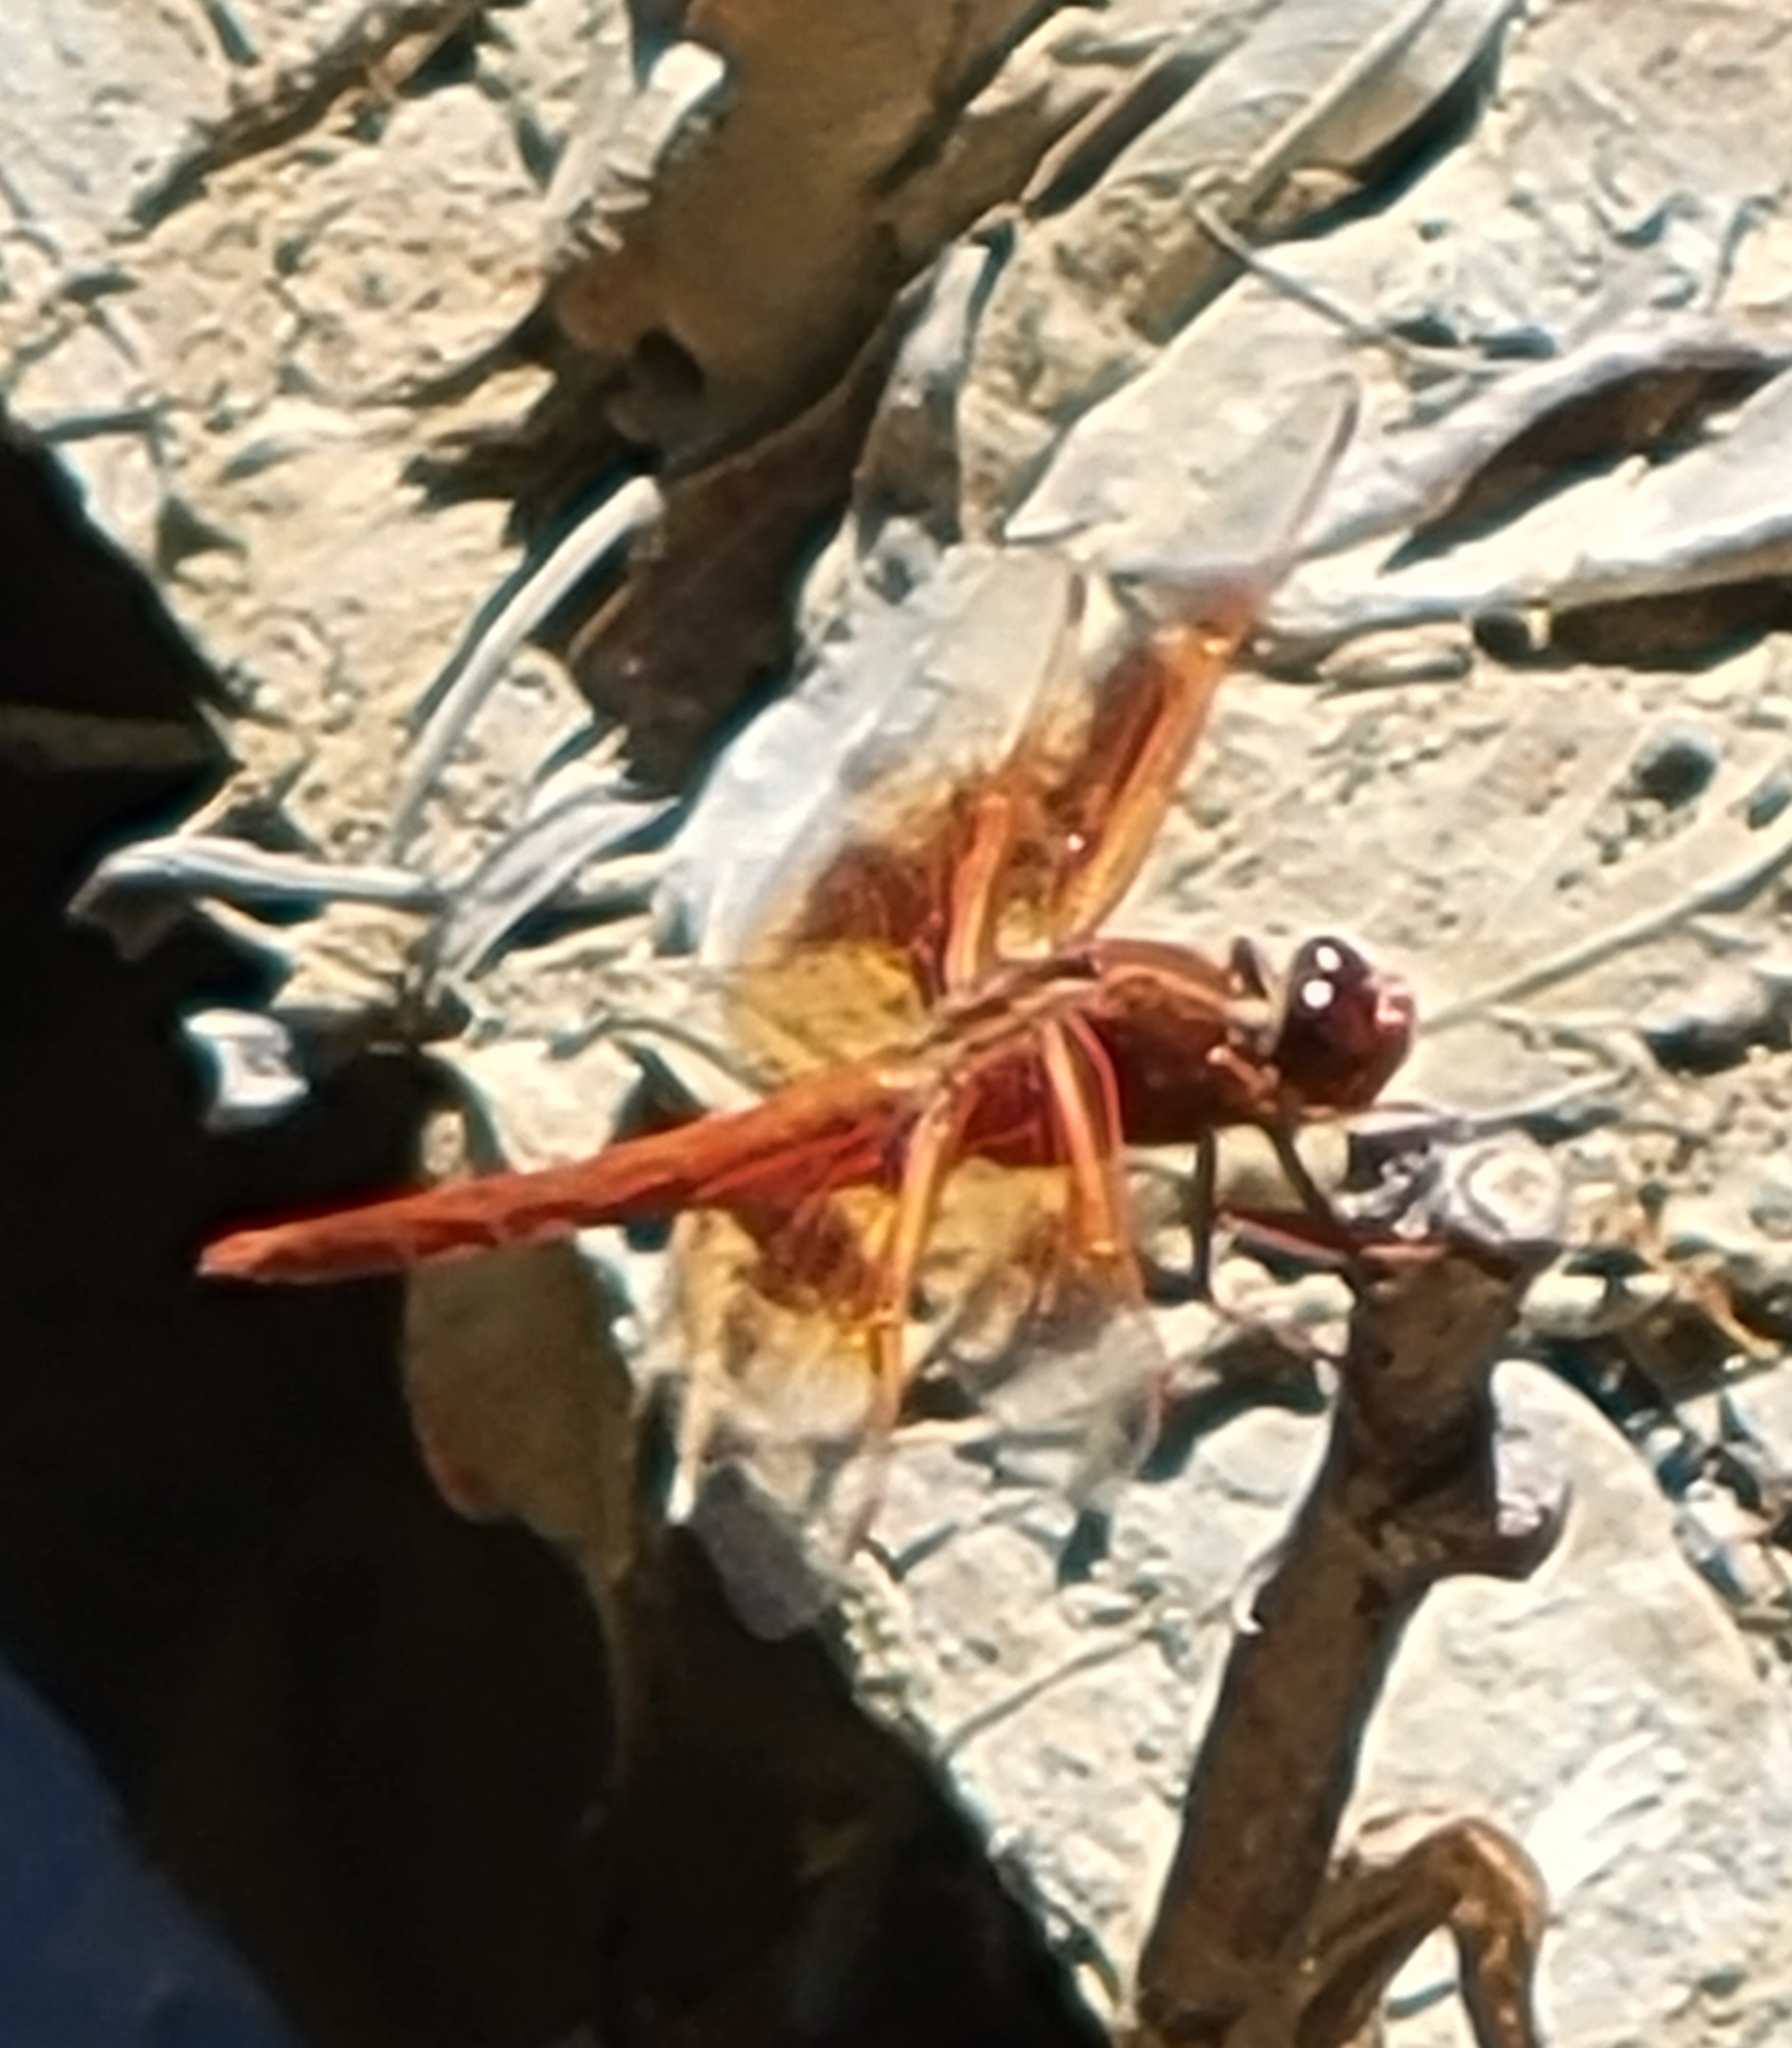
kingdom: Animalia
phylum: Arthropoda
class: Insecta
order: Odonata
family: Libellulidae
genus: Libellula
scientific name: Libellula saturata
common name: Flame skimmer
